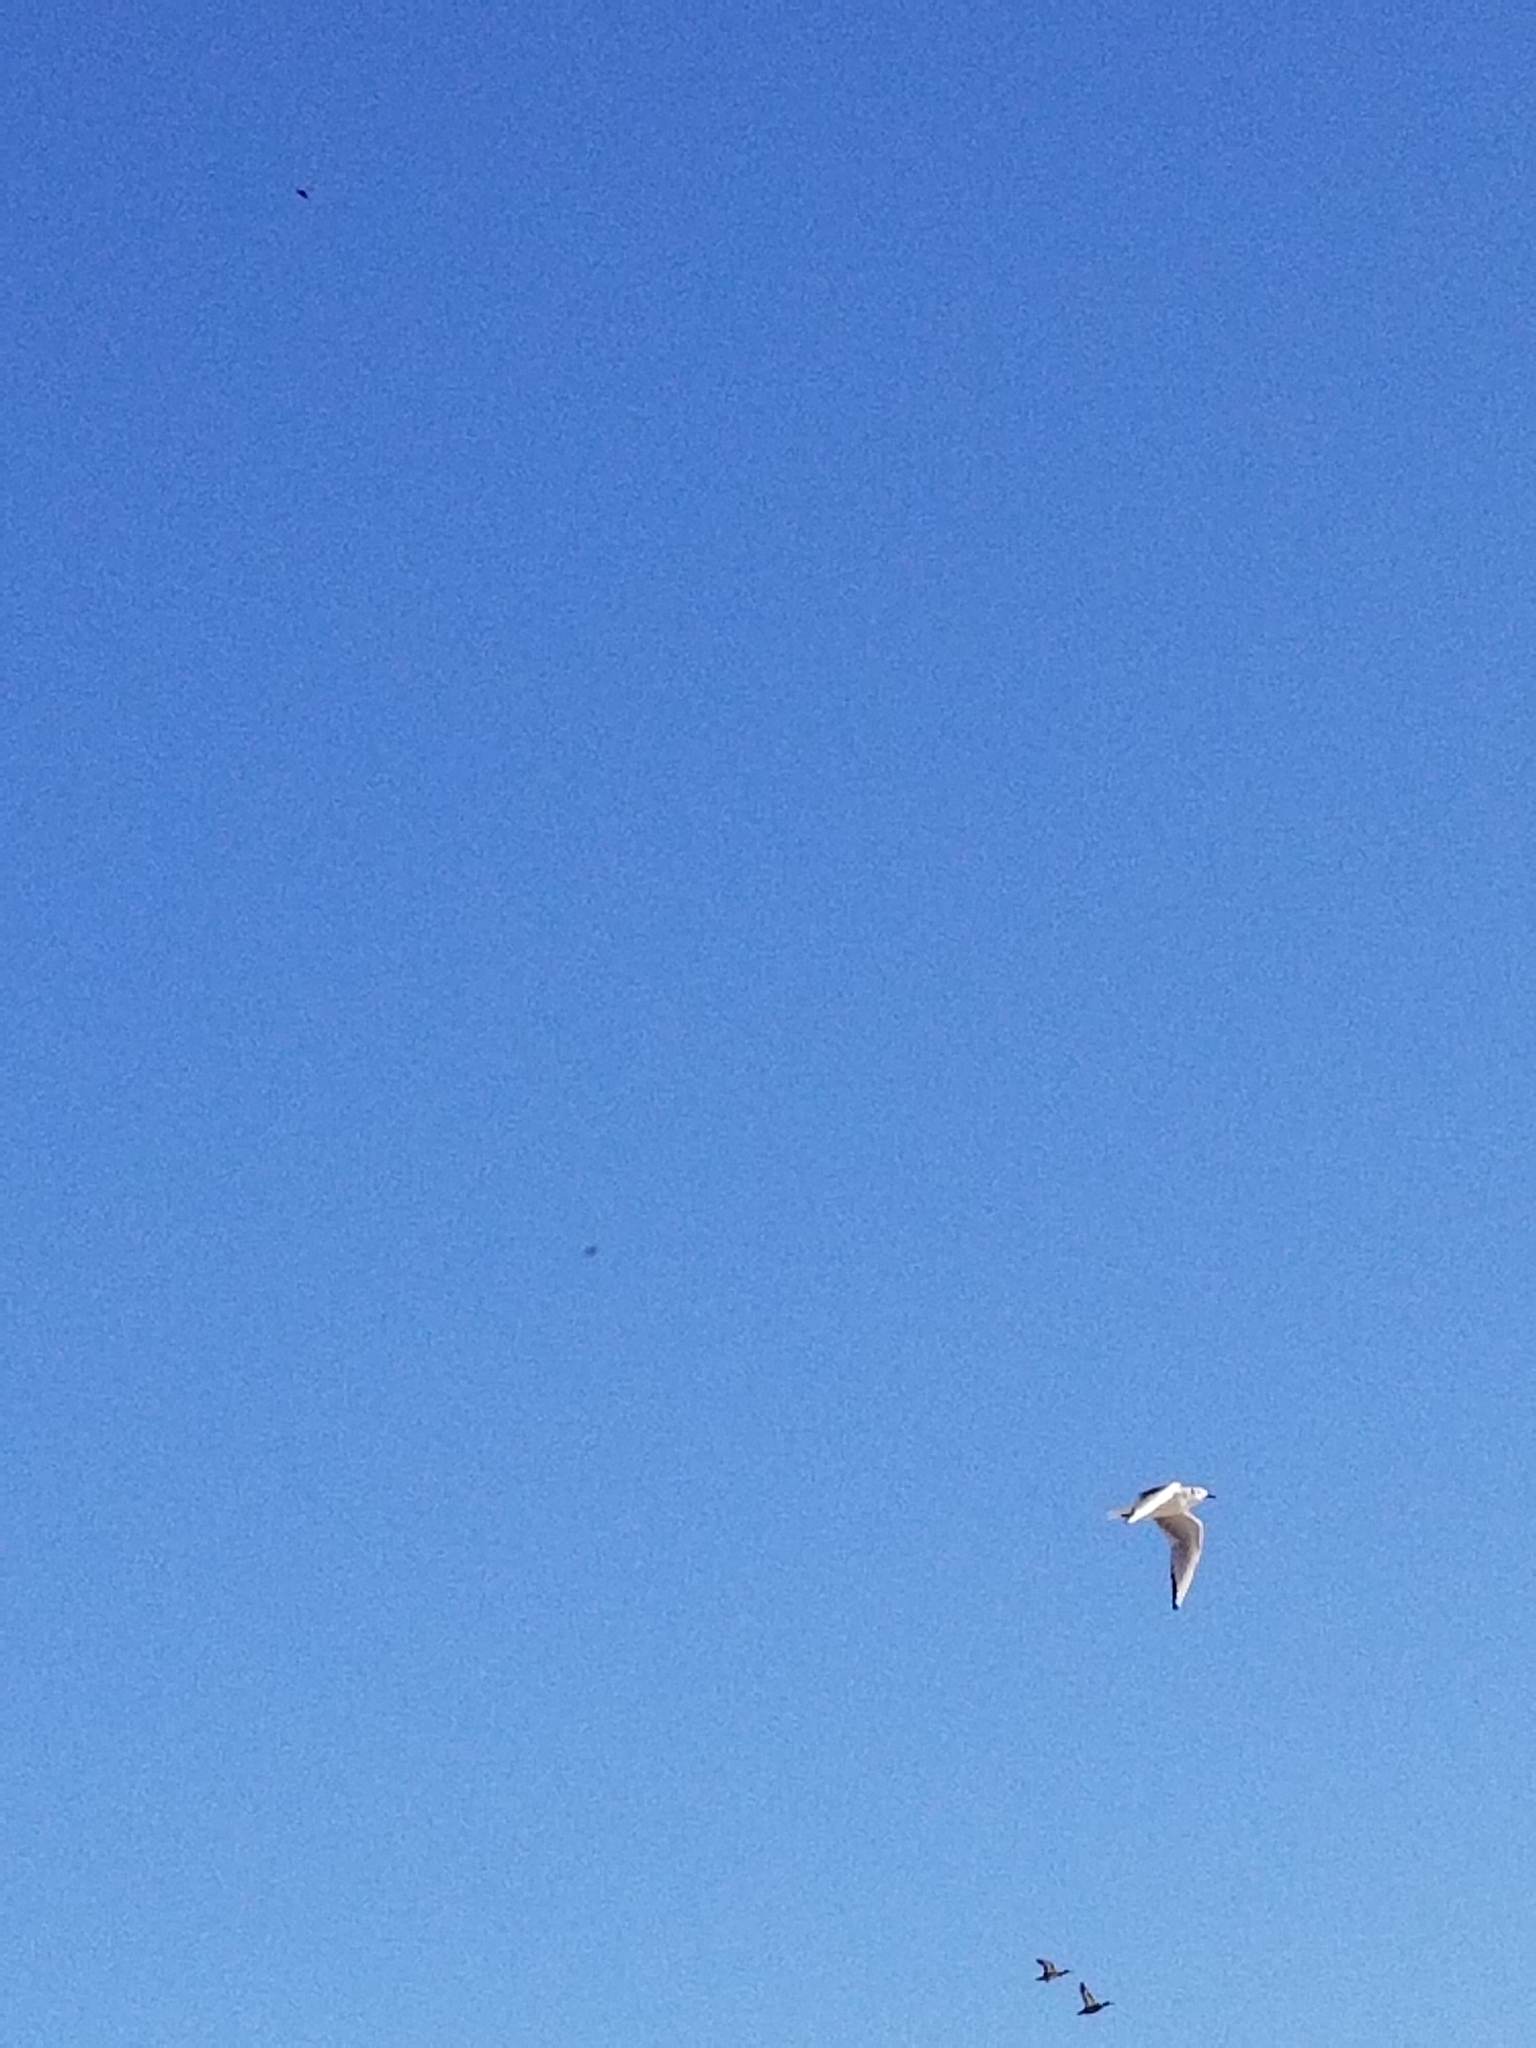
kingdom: Animalia
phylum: Chordata
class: Aves
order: Charadriiformes
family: Laridae
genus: Chroicocephalus
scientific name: Chroicocephalus philadelphia
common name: Bonaparte's gull
